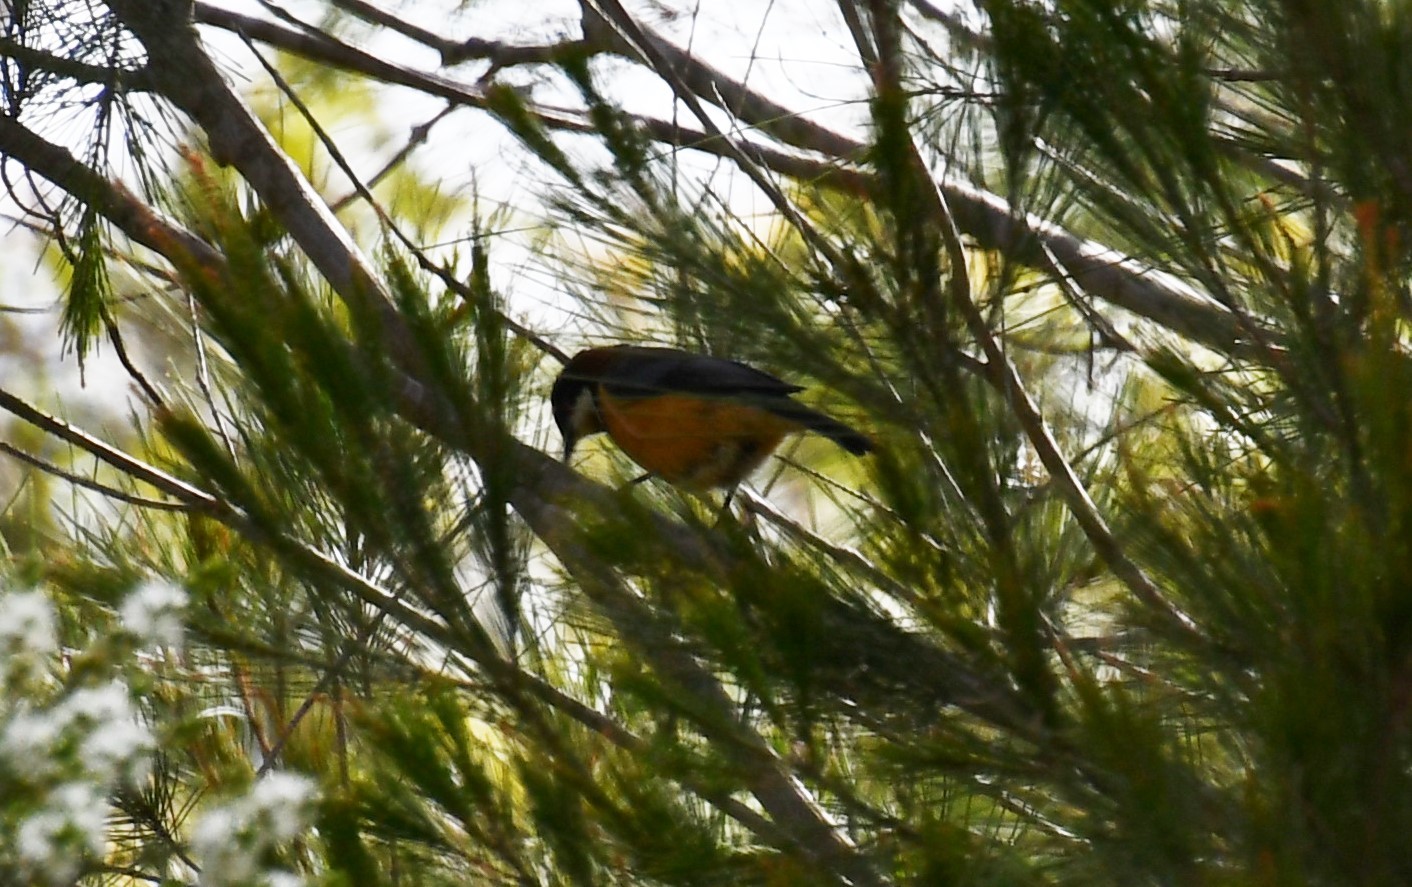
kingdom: Animalia
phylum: Chordata
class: Aves
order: Passeriformes
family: Meliphagidae
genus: Acanthorhynchus
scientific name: Acanthorhynchus tenuirostris
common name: Eastern spinebill
